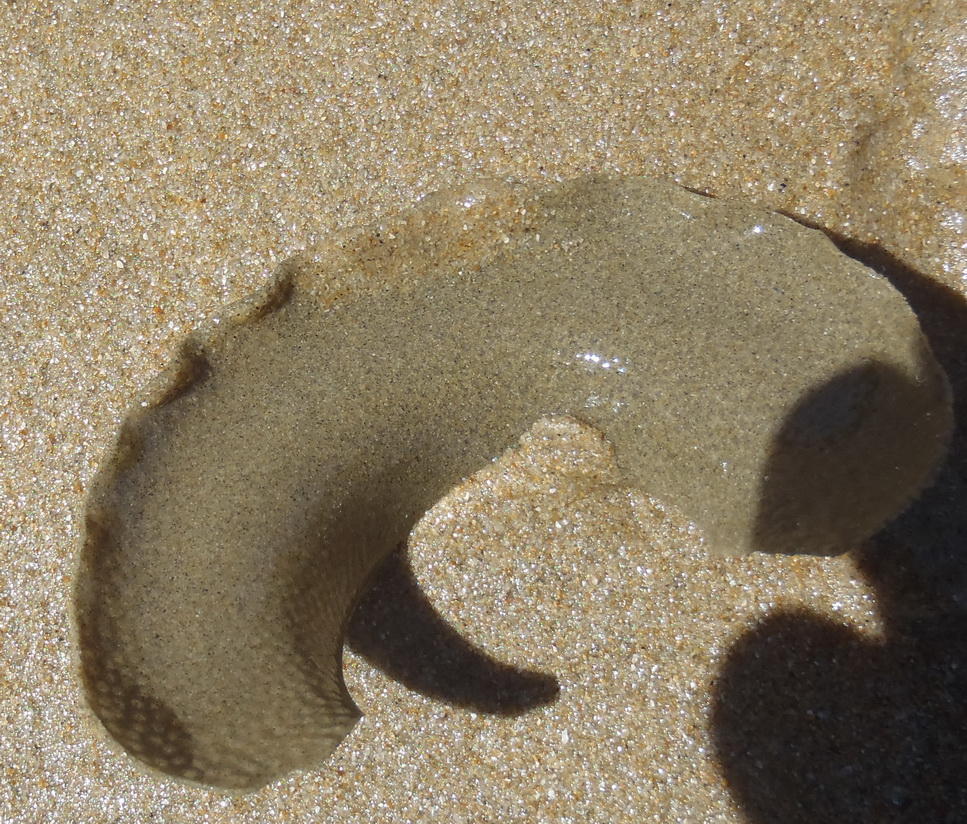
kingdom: Animalia
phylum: Mollusca
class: Gastropoda
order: Littorinimorpha
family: Naticidae
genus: Neverita
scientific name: Neverita didyma
